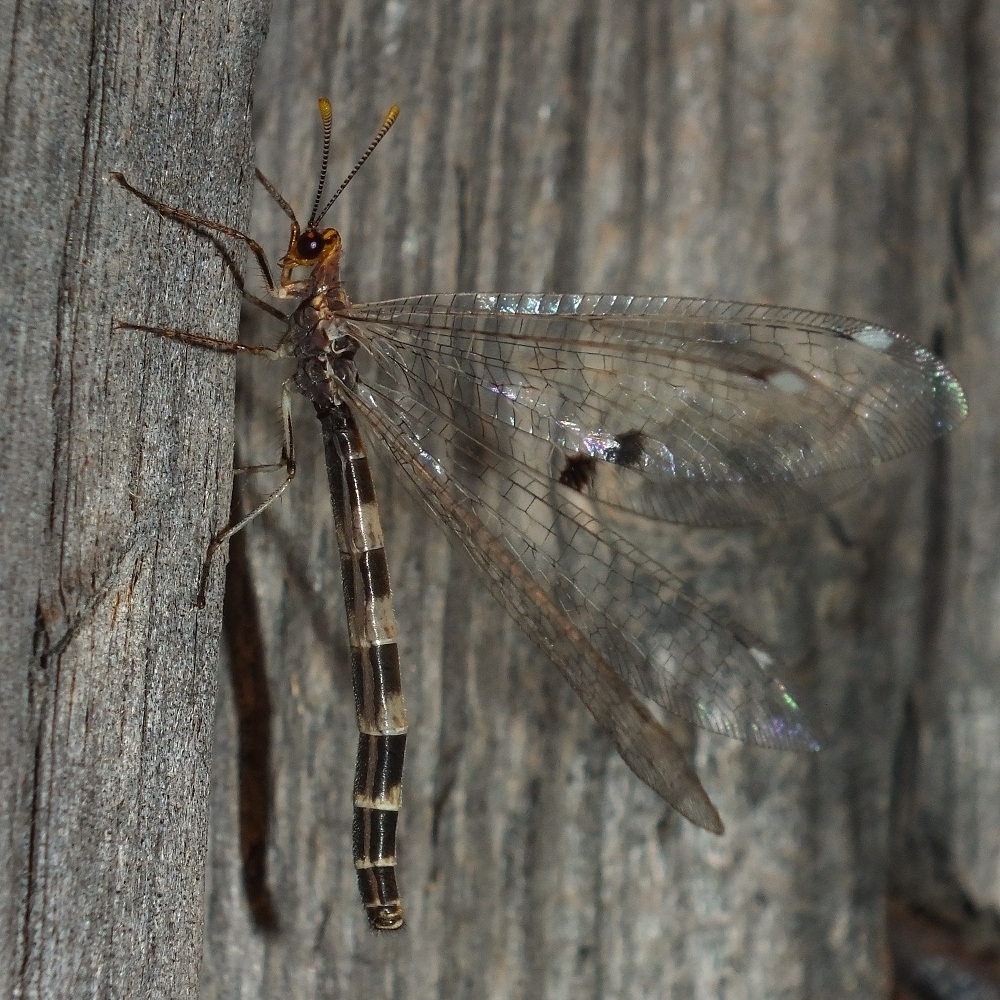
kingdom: Animalia
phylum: Arthropoda
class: Insecta
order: Neuroptera
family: Myrmeleontidae
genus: Megistopus
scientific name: Megistopus flavicornis
